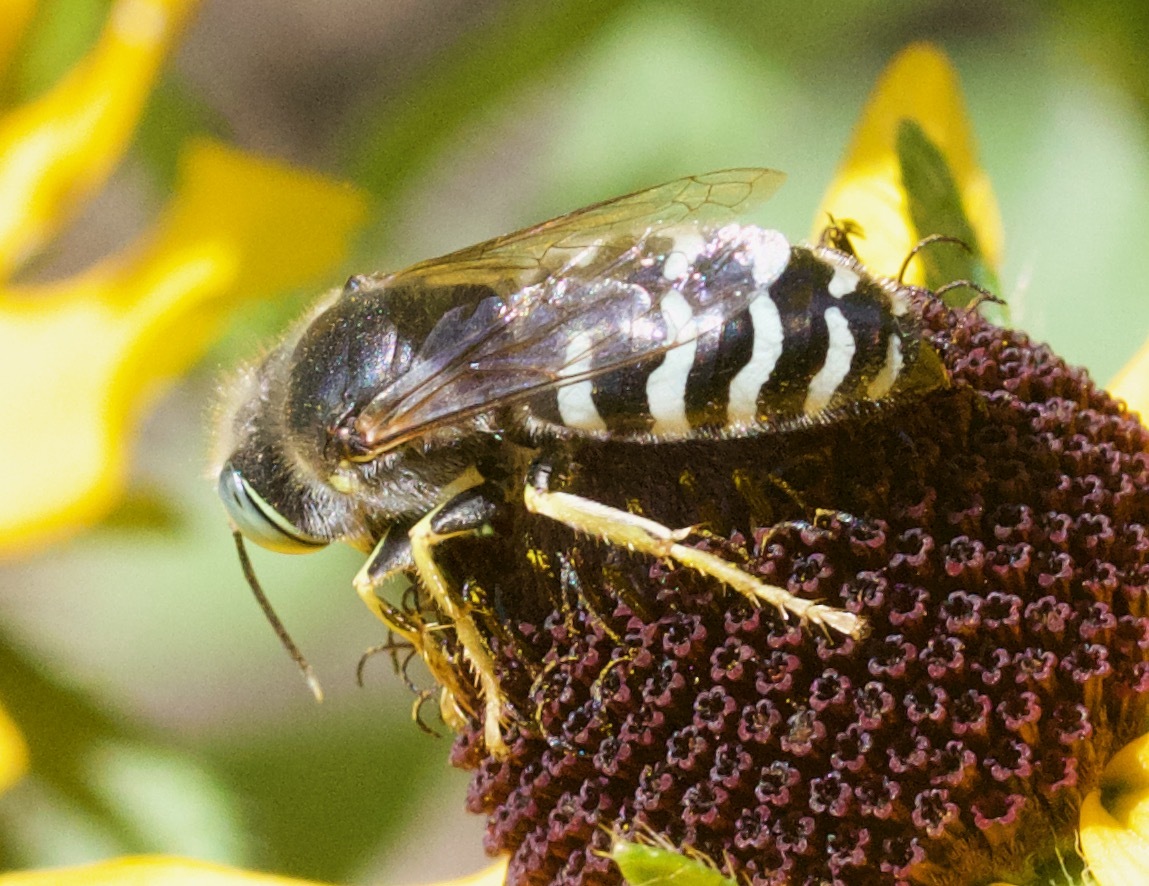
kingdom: Animalia
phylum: Arthropoda
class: Insecta
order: Hymenoptera
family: Crabronidae
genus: Bembix
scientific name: Bembix americana
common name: American sand wasp
